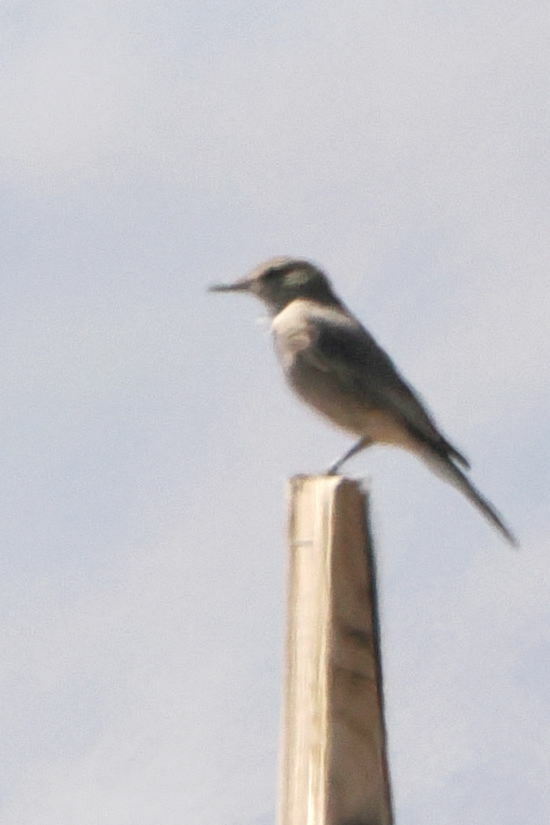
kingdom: Animalia
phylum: Chordata
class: Aves
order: Passeriformes
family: Tyrannidae
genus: Agriornis
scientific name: Agriornis montanus
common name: Black-billed shrike-tyrant
